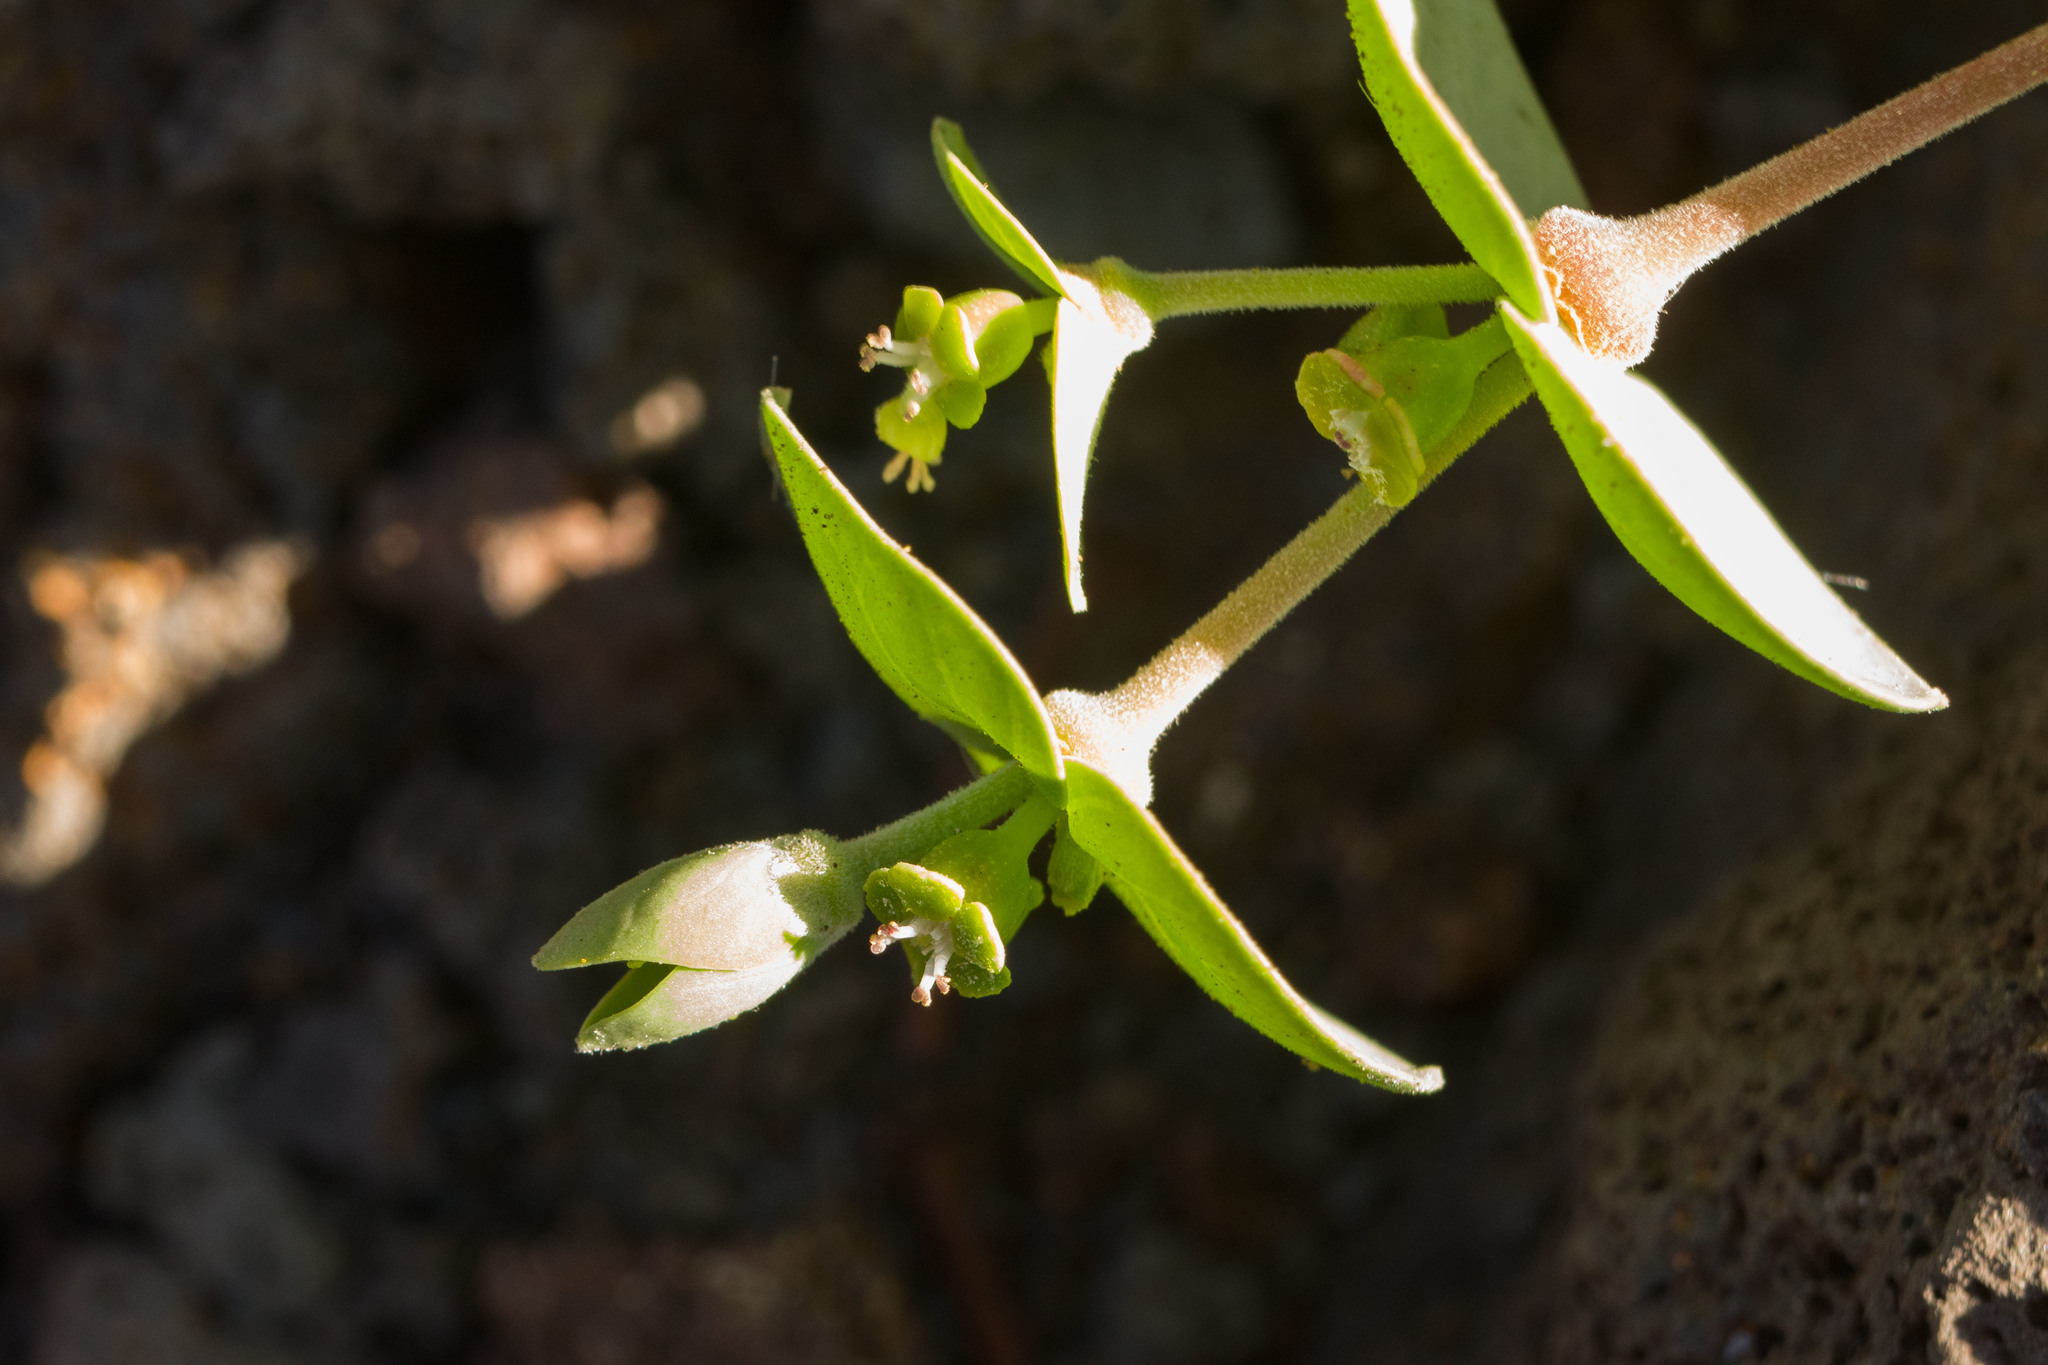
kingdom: Plantae
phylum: Tracheophyta
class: Magnoliopsida
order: Malpighiales
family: Euphorbiaceae
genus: Euphorbia
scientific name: Euphorbia degeneri
